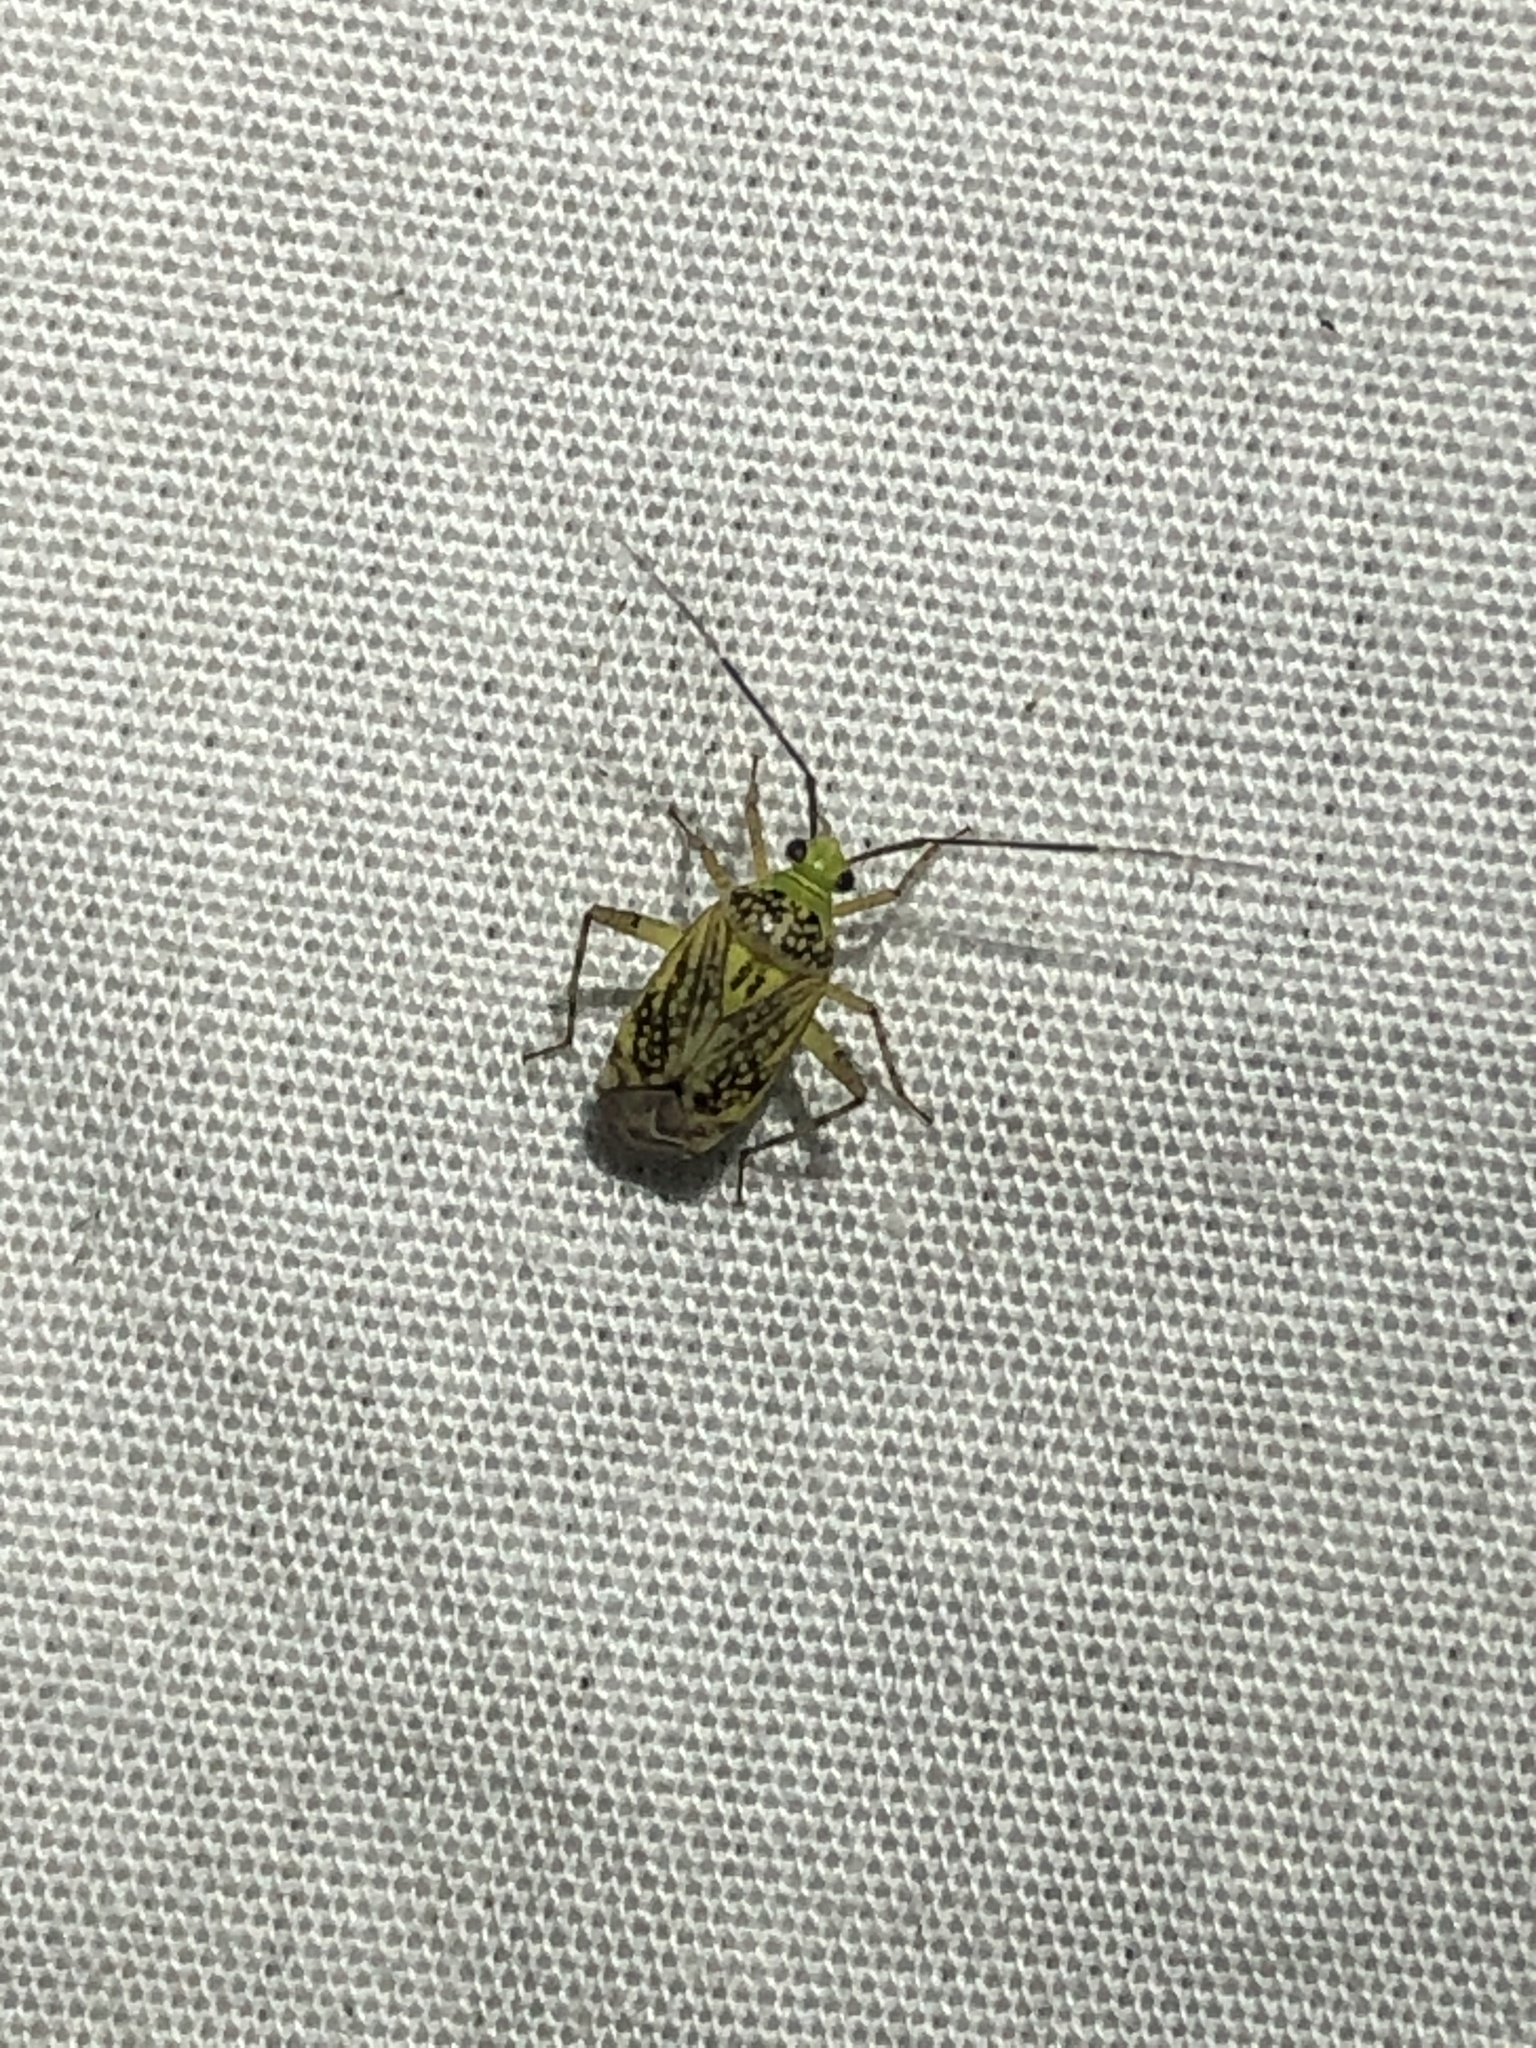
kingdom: Animalia
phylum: Arthropoda
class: Insecta
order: Hemiptera
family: Miridae
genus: Taedia
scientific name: Taedia marmorata
